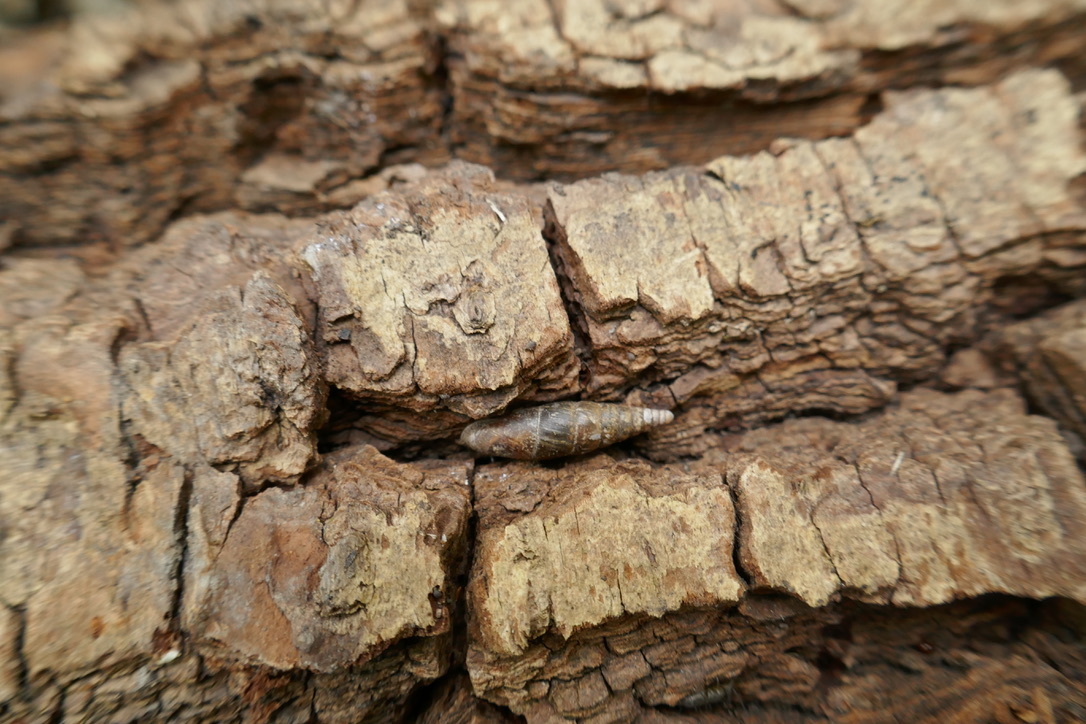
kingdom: Animalia
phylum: Mollusca
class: Gastropoda
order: Stylommatophora
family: Clausiliidae
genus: Cochlodina
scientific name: Cochlodina laminata
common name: Plaited door snail
